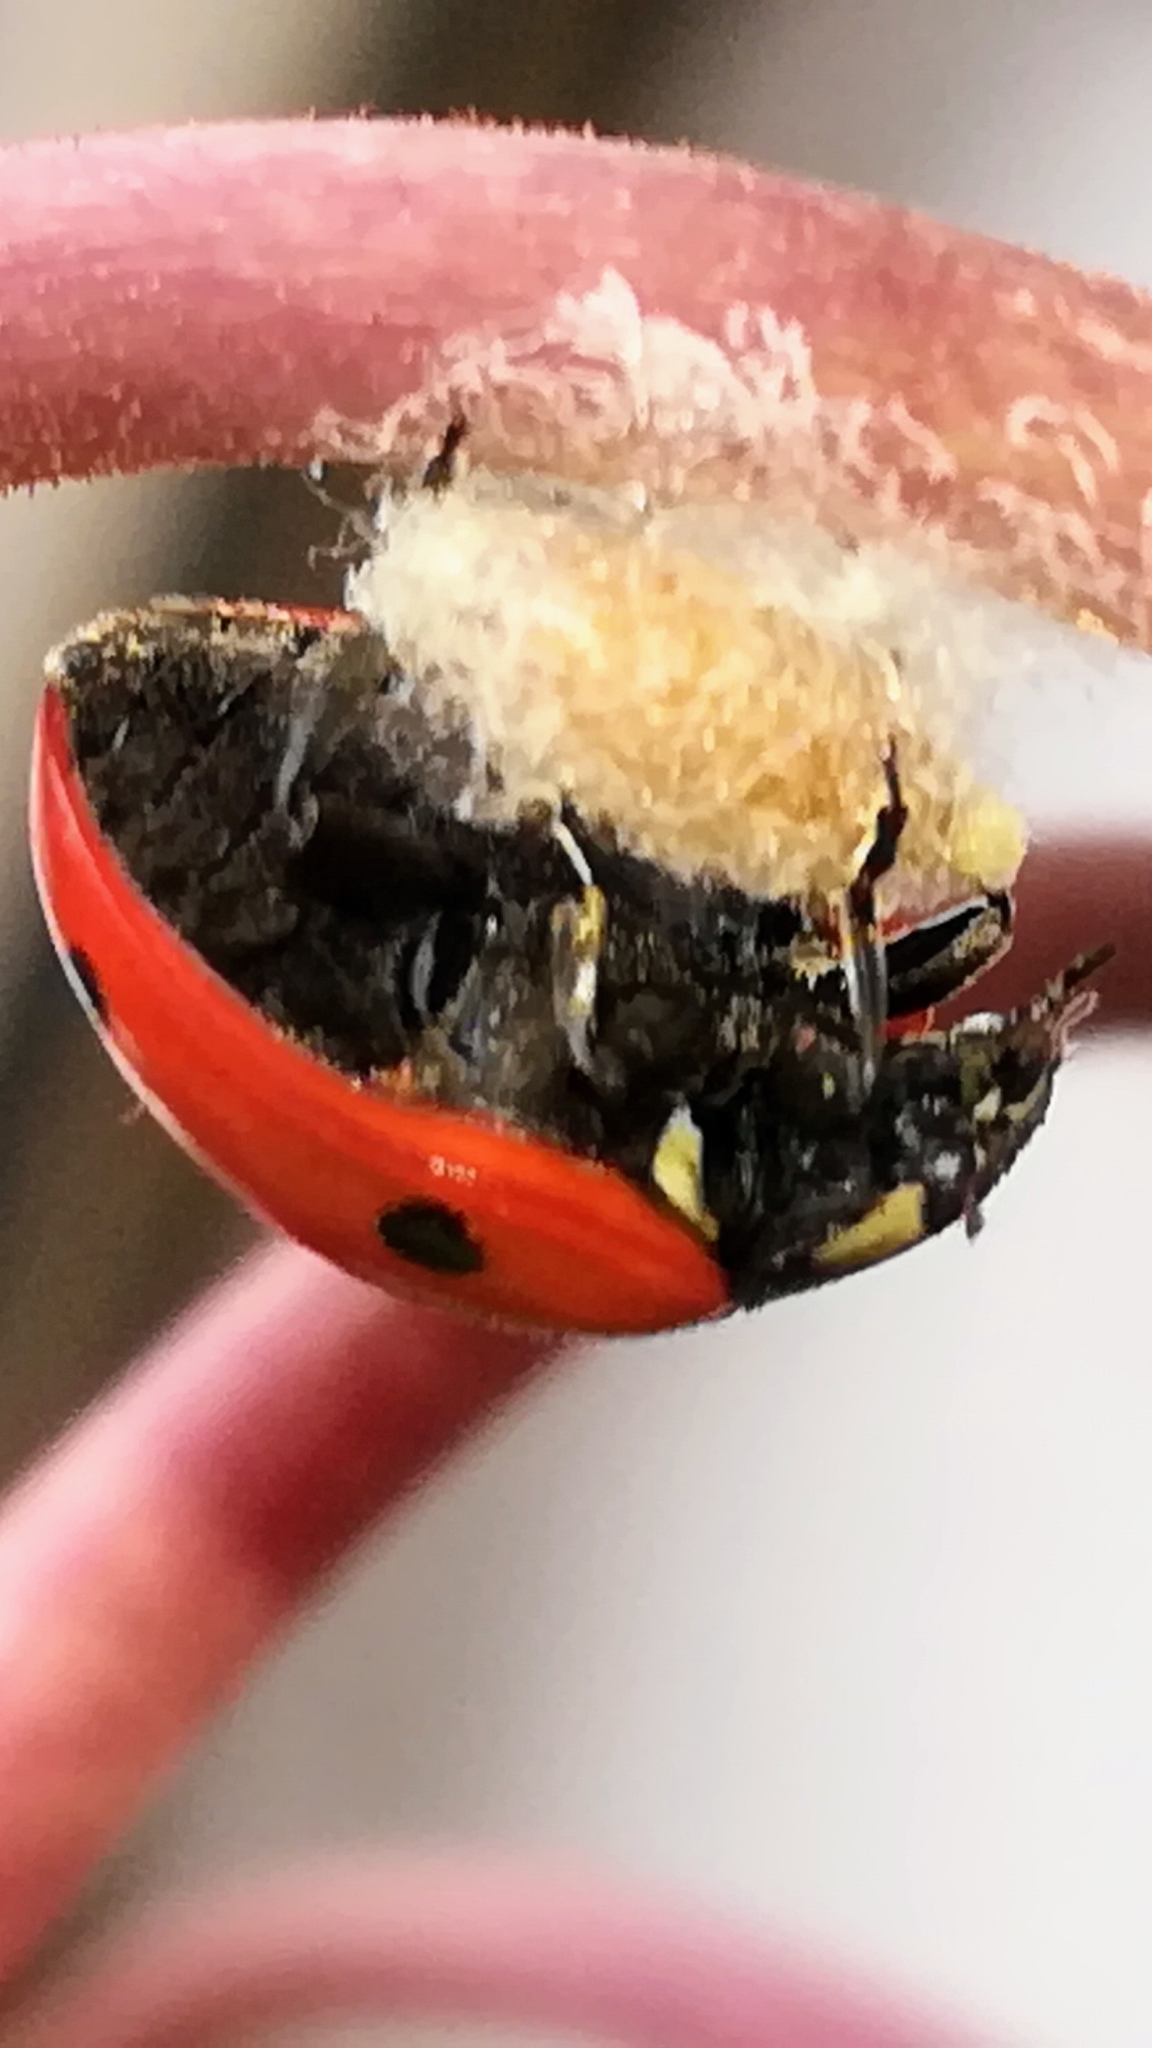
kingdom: Animalia
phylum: Arthropoda
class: Insecta
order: Hymenoptera
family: Braconidae
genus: Dinocampus
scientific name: Dinocampus coccinellae
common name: Braconid wasp
